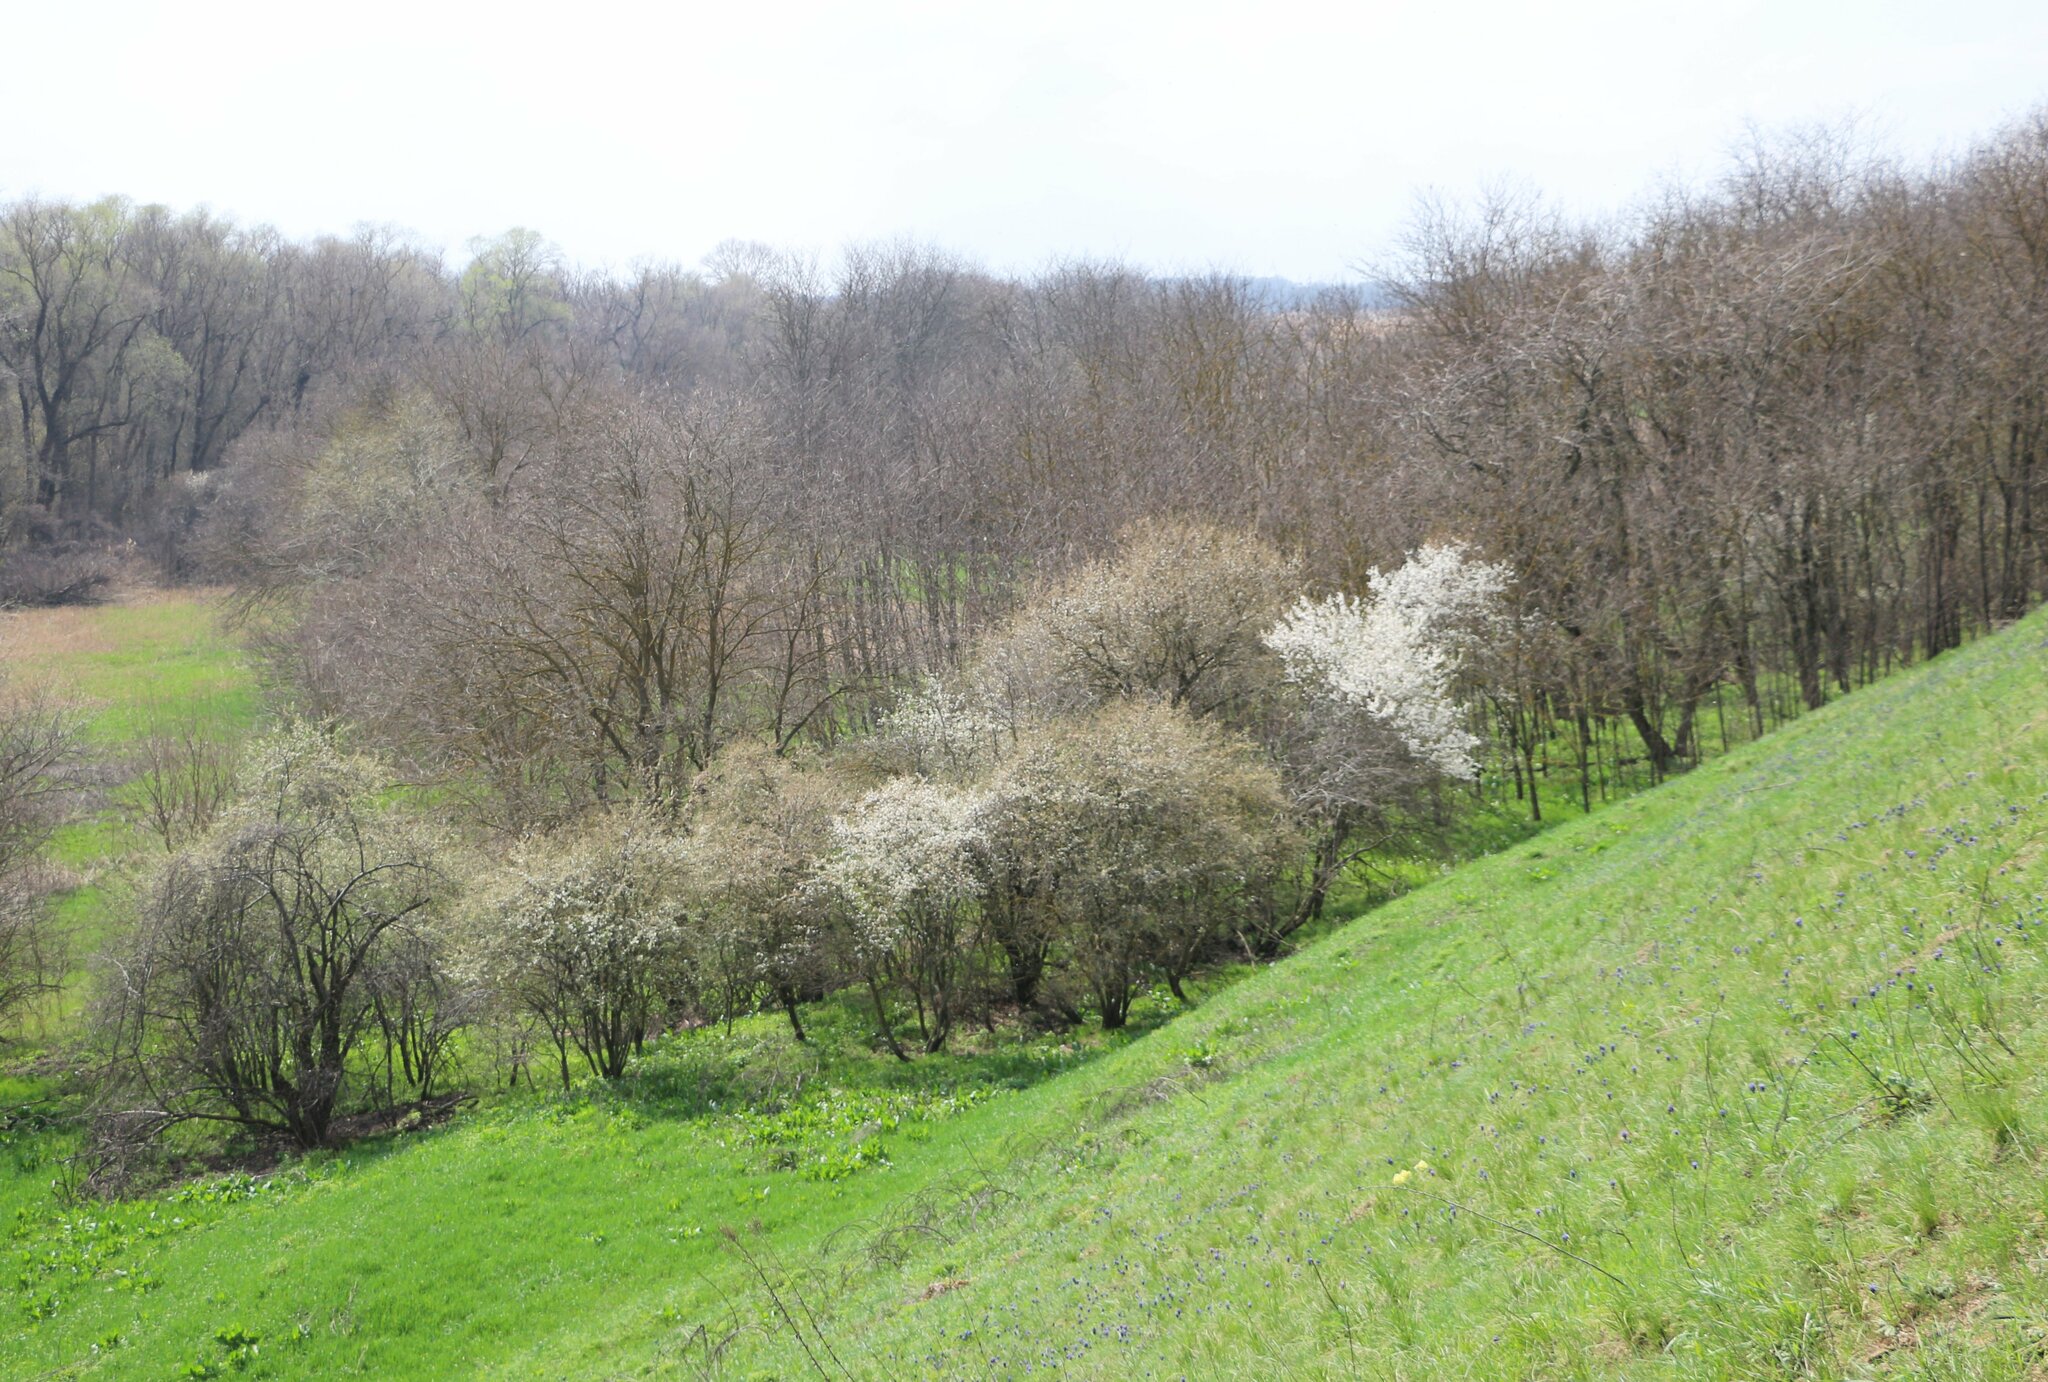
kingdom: Plantae
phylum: Tracheophyta
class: Magnoliopsida
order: Rosales
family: Rosaceae
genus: Prunus
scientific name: Prunus cerasifera
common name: Cherry plum
